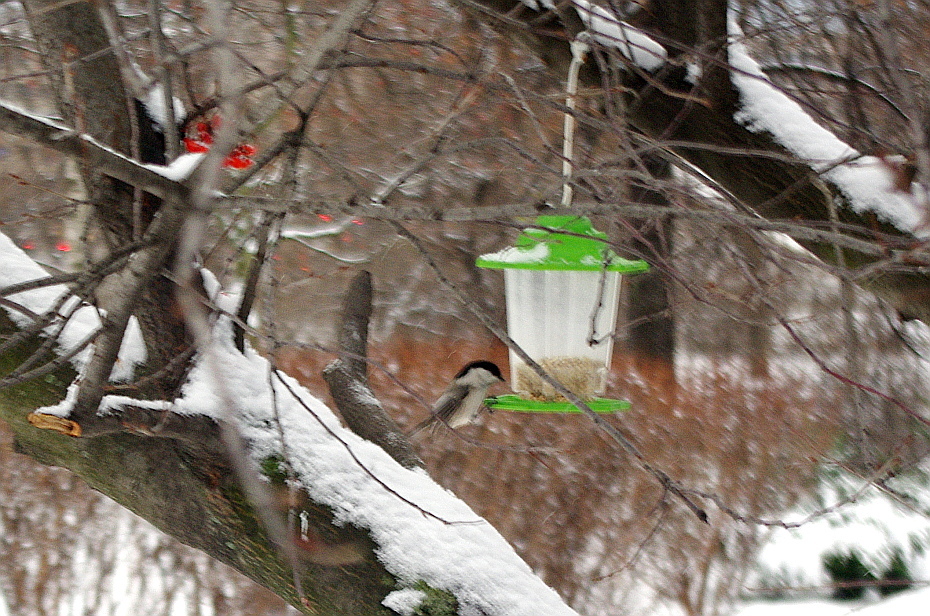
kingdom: Animalia
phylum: Chordata
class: Aves
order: Passeriformes
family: Paridae
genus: Poecile
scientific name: Poecile montanus
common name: Willow tit
